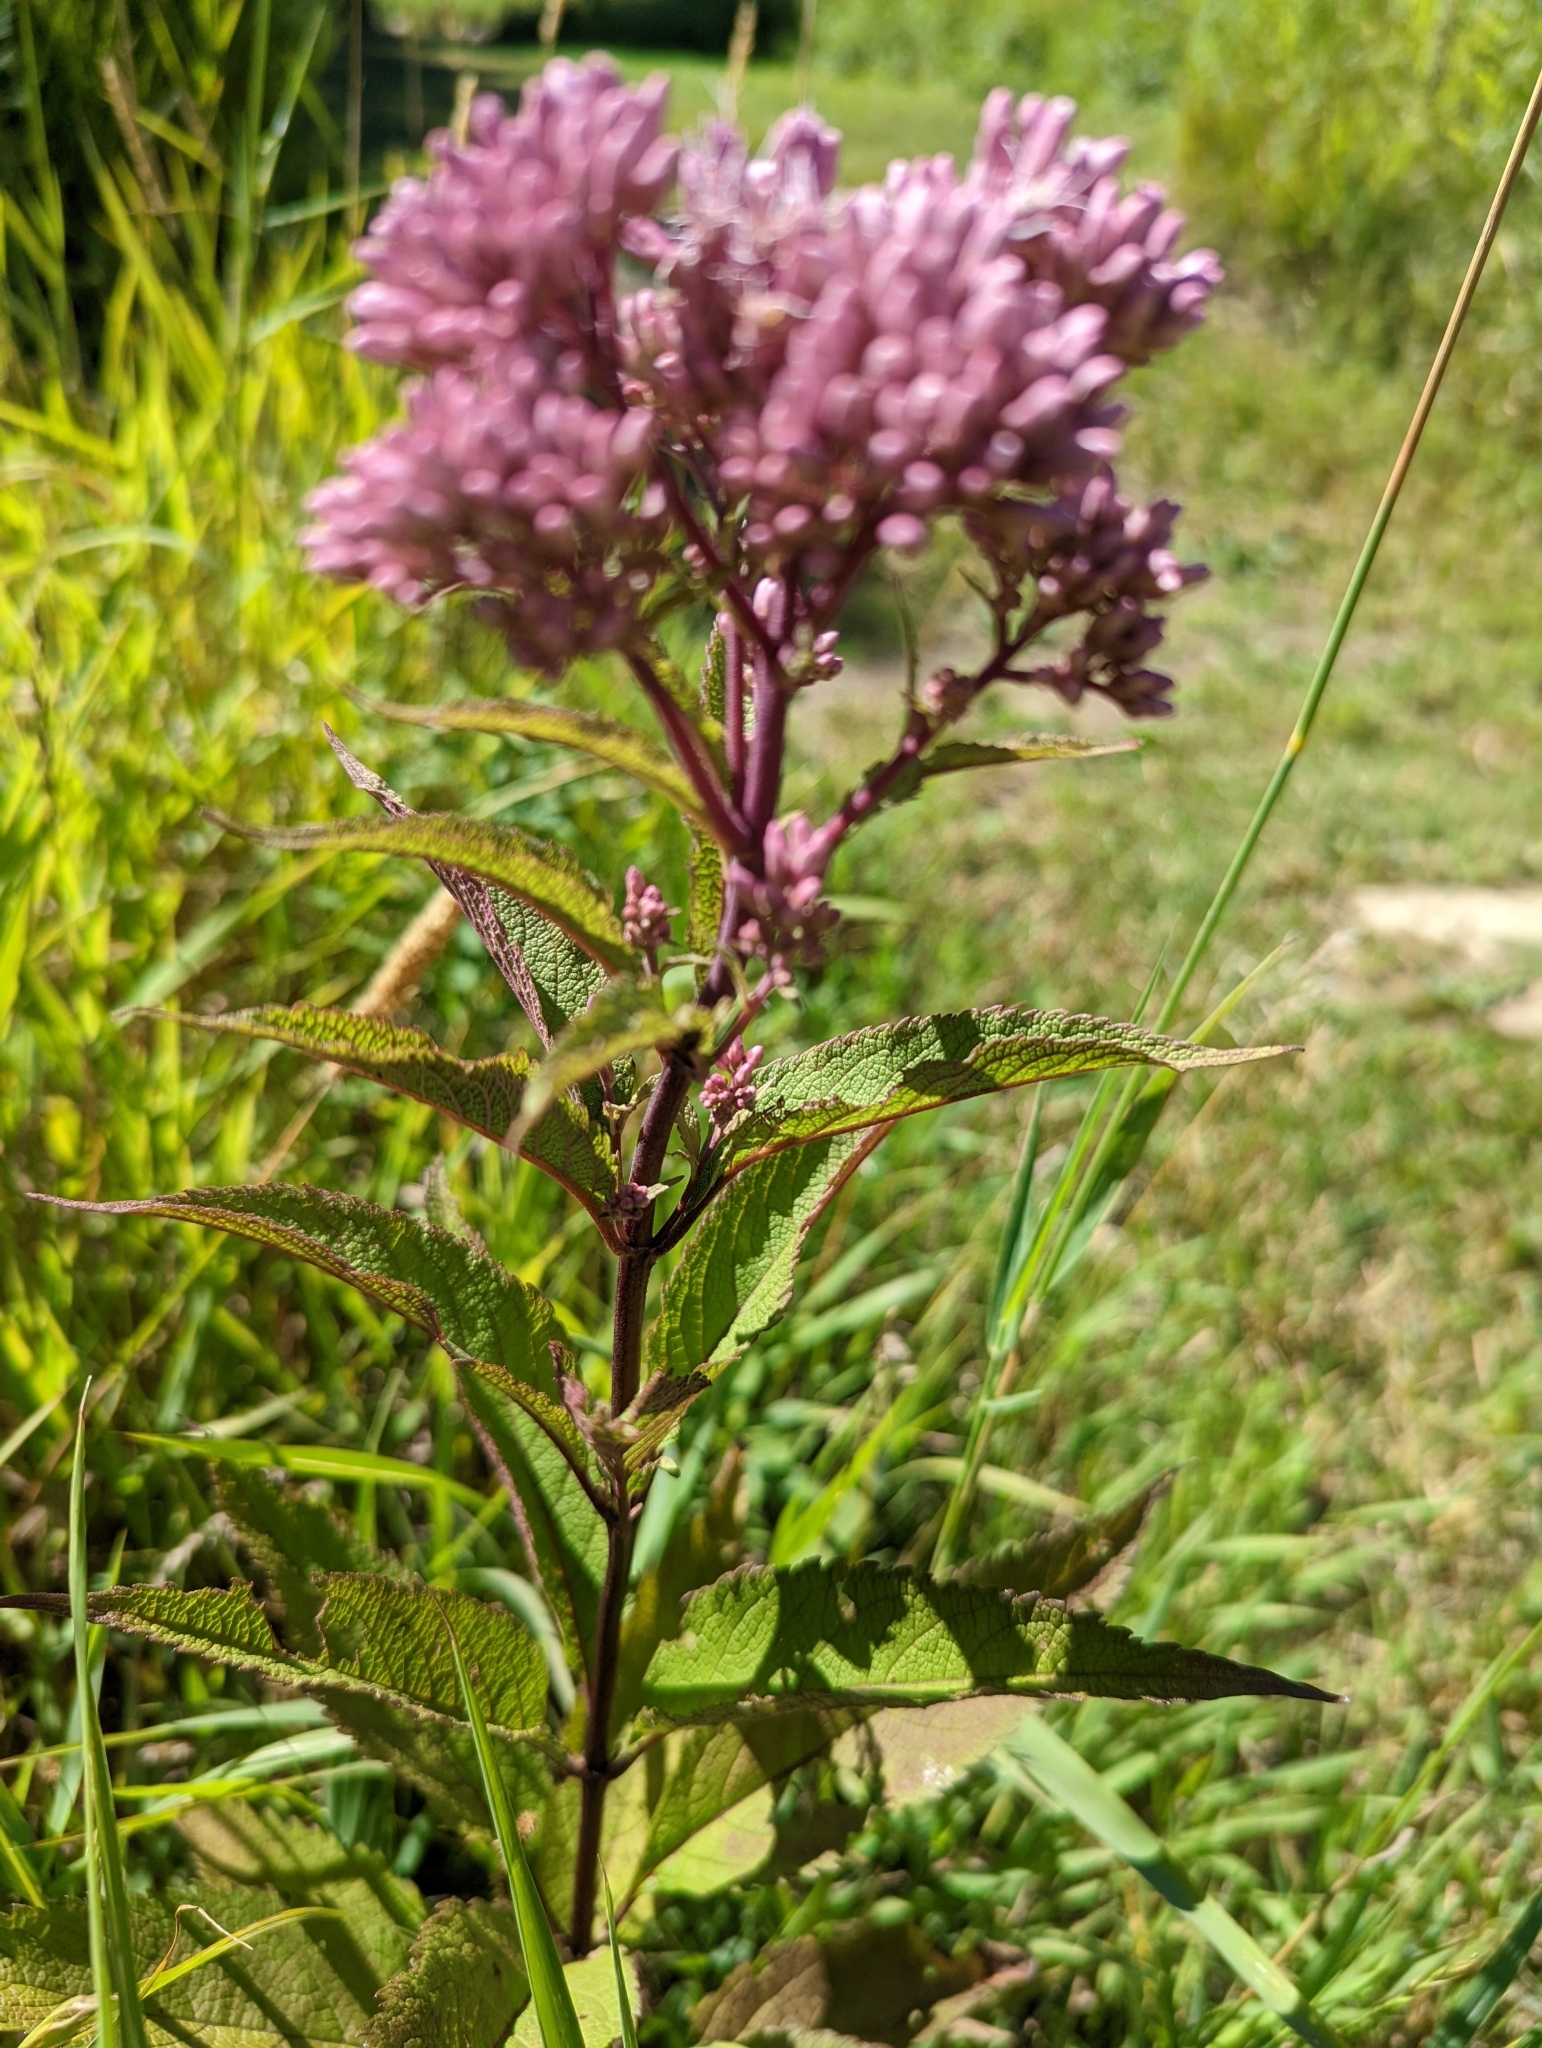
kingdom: Plantae
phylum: Tracheophyta
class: Magnoliopsida
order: Asterales
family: Asteraceae
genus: Eutrochium
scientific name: Eutrochium maculatum
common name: Spotted joe pye weed
